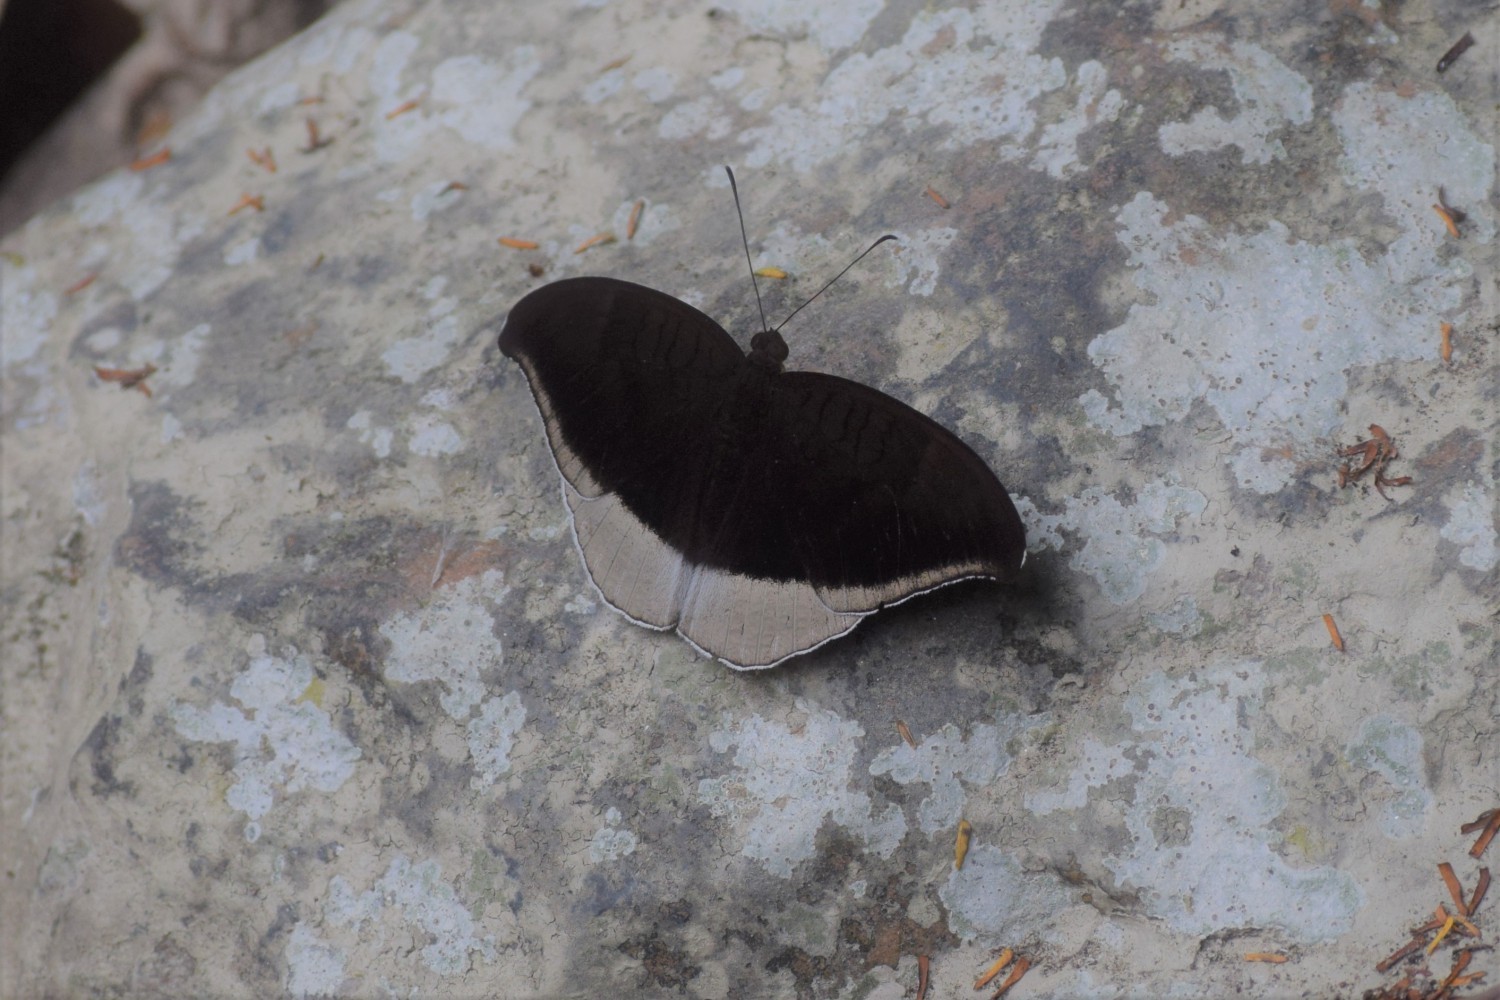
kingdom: Animalia
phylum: Arthropoda
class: Insecta
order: Lepidoptera
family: Nymphalidae
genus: Tanaecia
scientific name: Tanaecia lepidea
